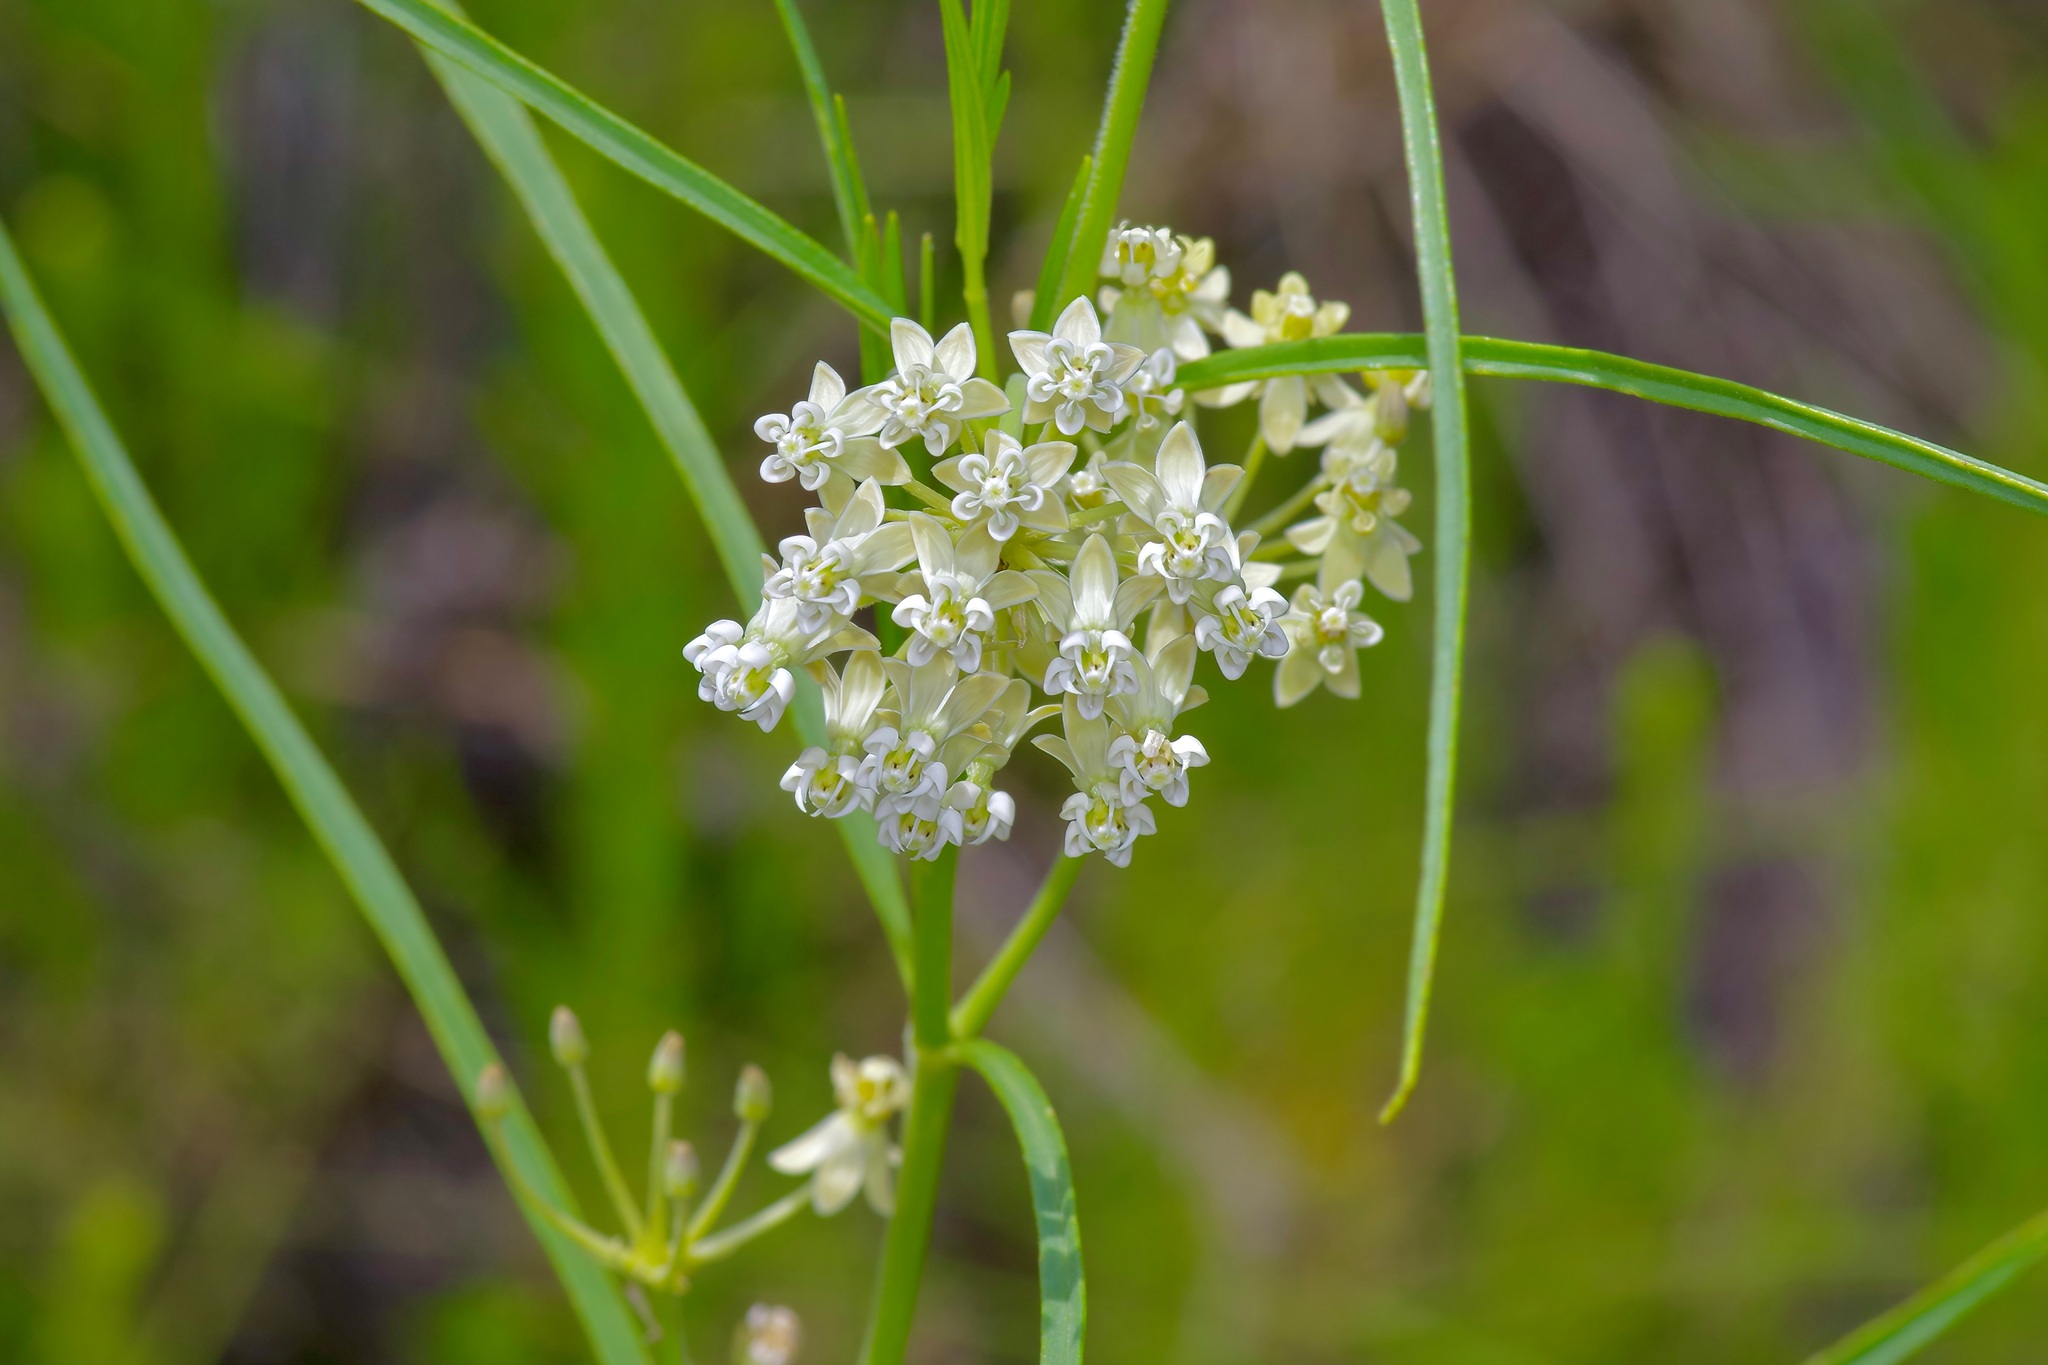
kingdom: Plantae
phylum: Tracheophyta
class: Magnoliopsida
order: Gentianales
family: Apocynaceae
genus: Asclepias
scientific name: Asclepias subverticillata
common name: Horsetail milkweed
